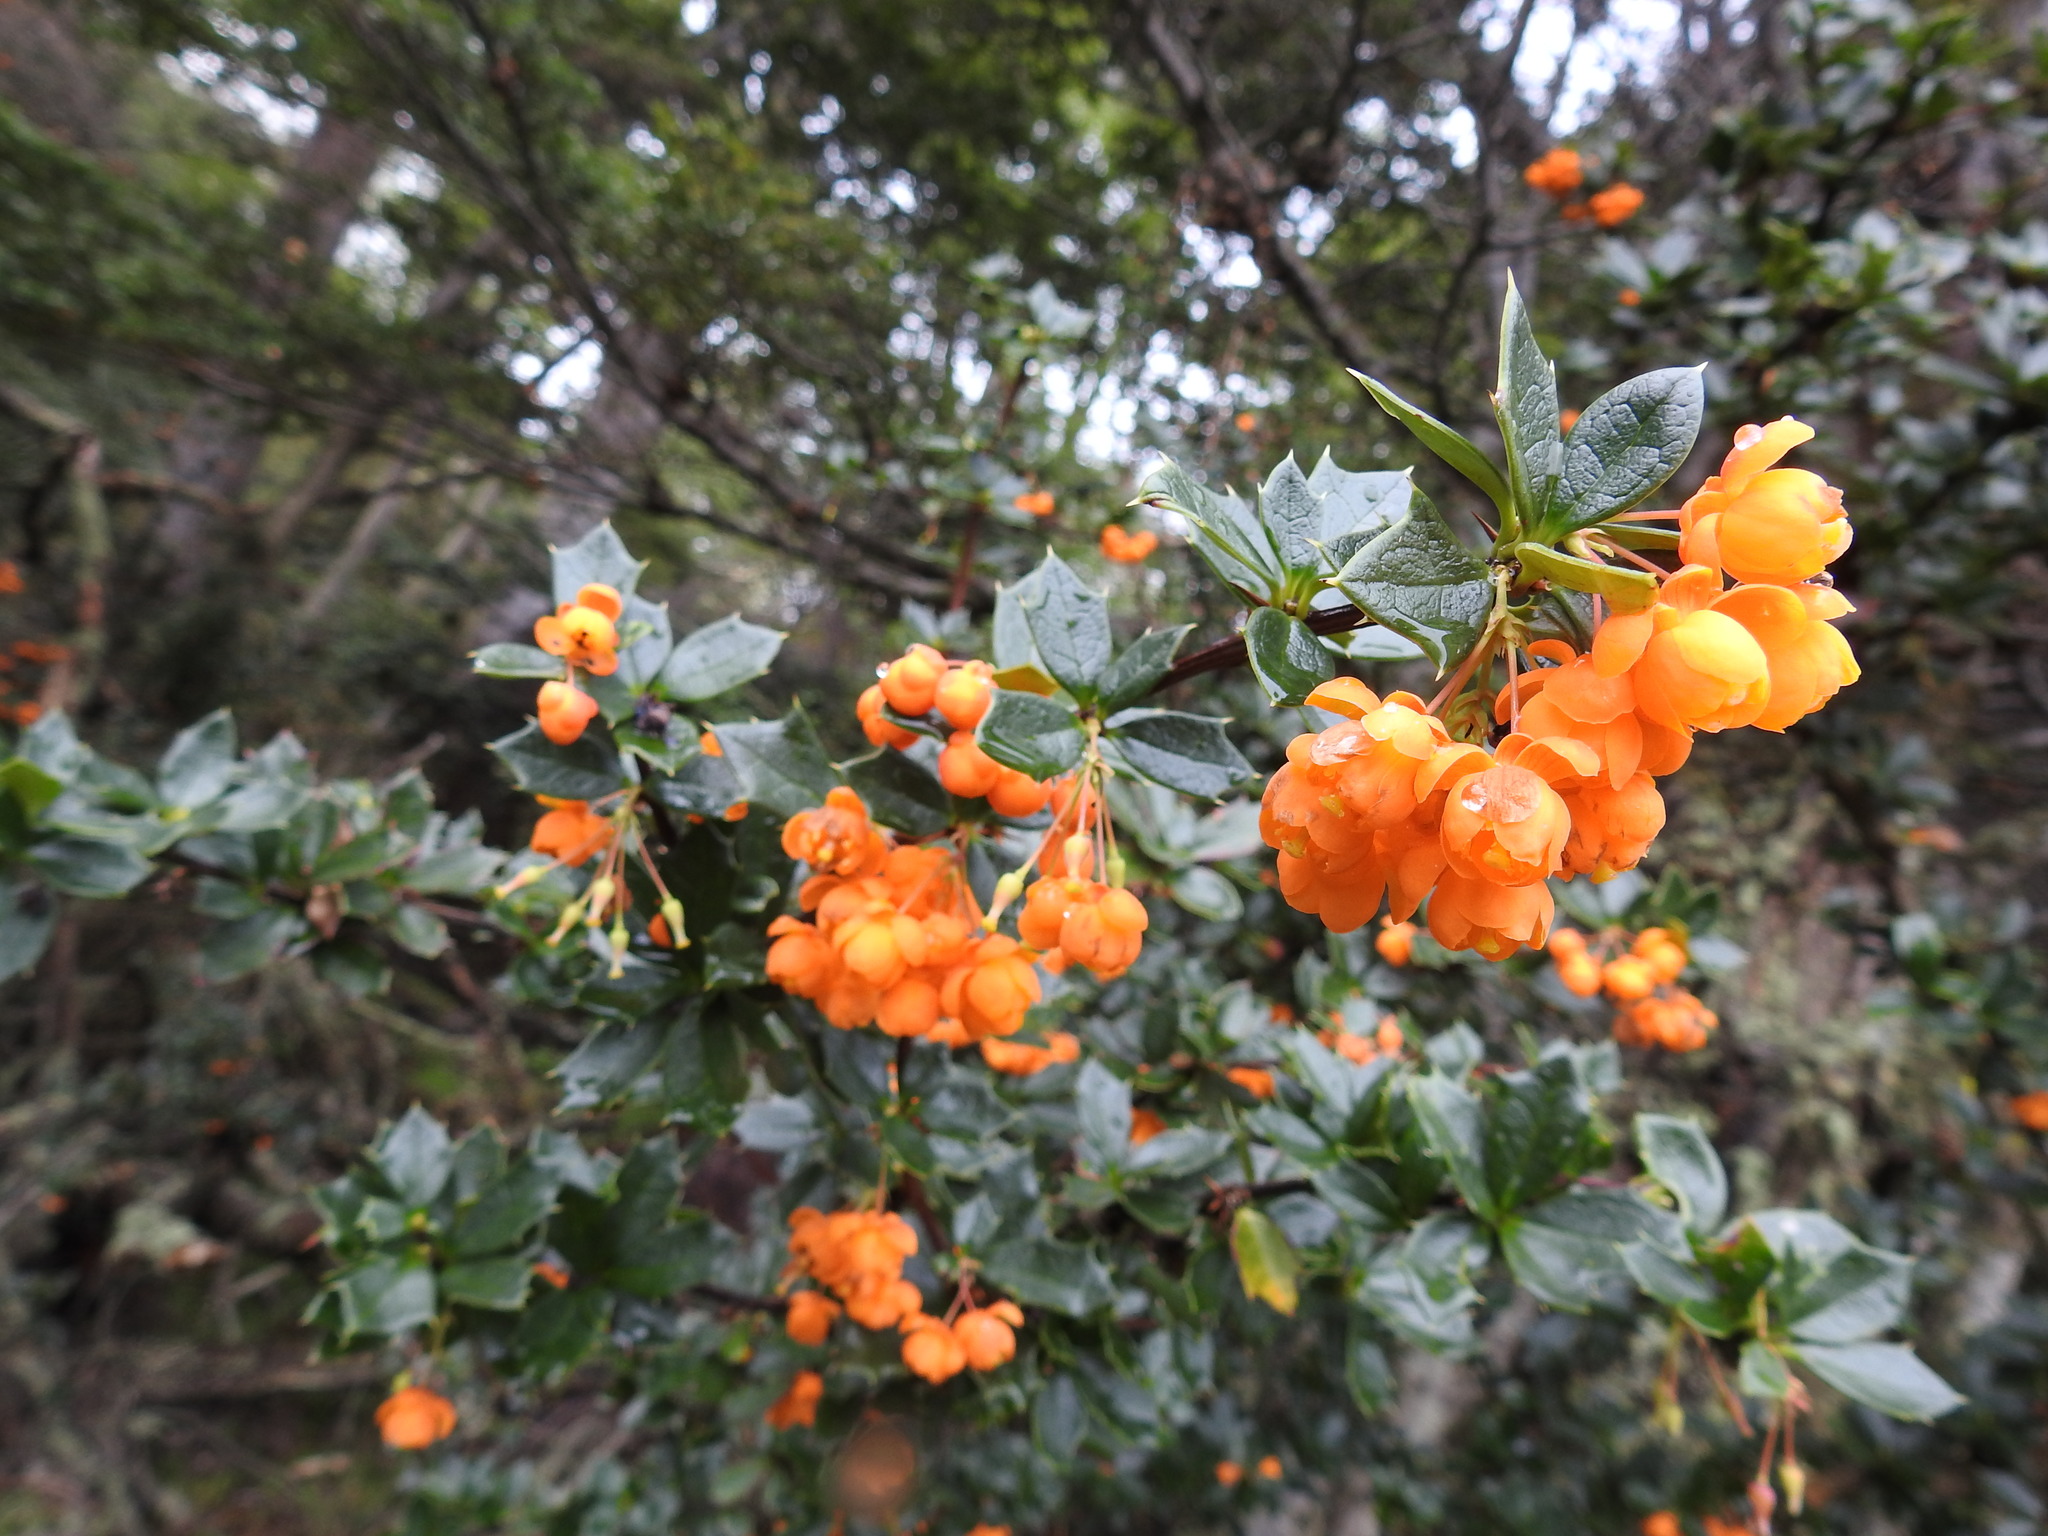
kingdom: Plantae
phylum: Tracheophyta
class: Magnoliopsida
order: Ranunculales
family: Berberidaceae
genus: Berberis
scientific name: Berberis ilicifolia
